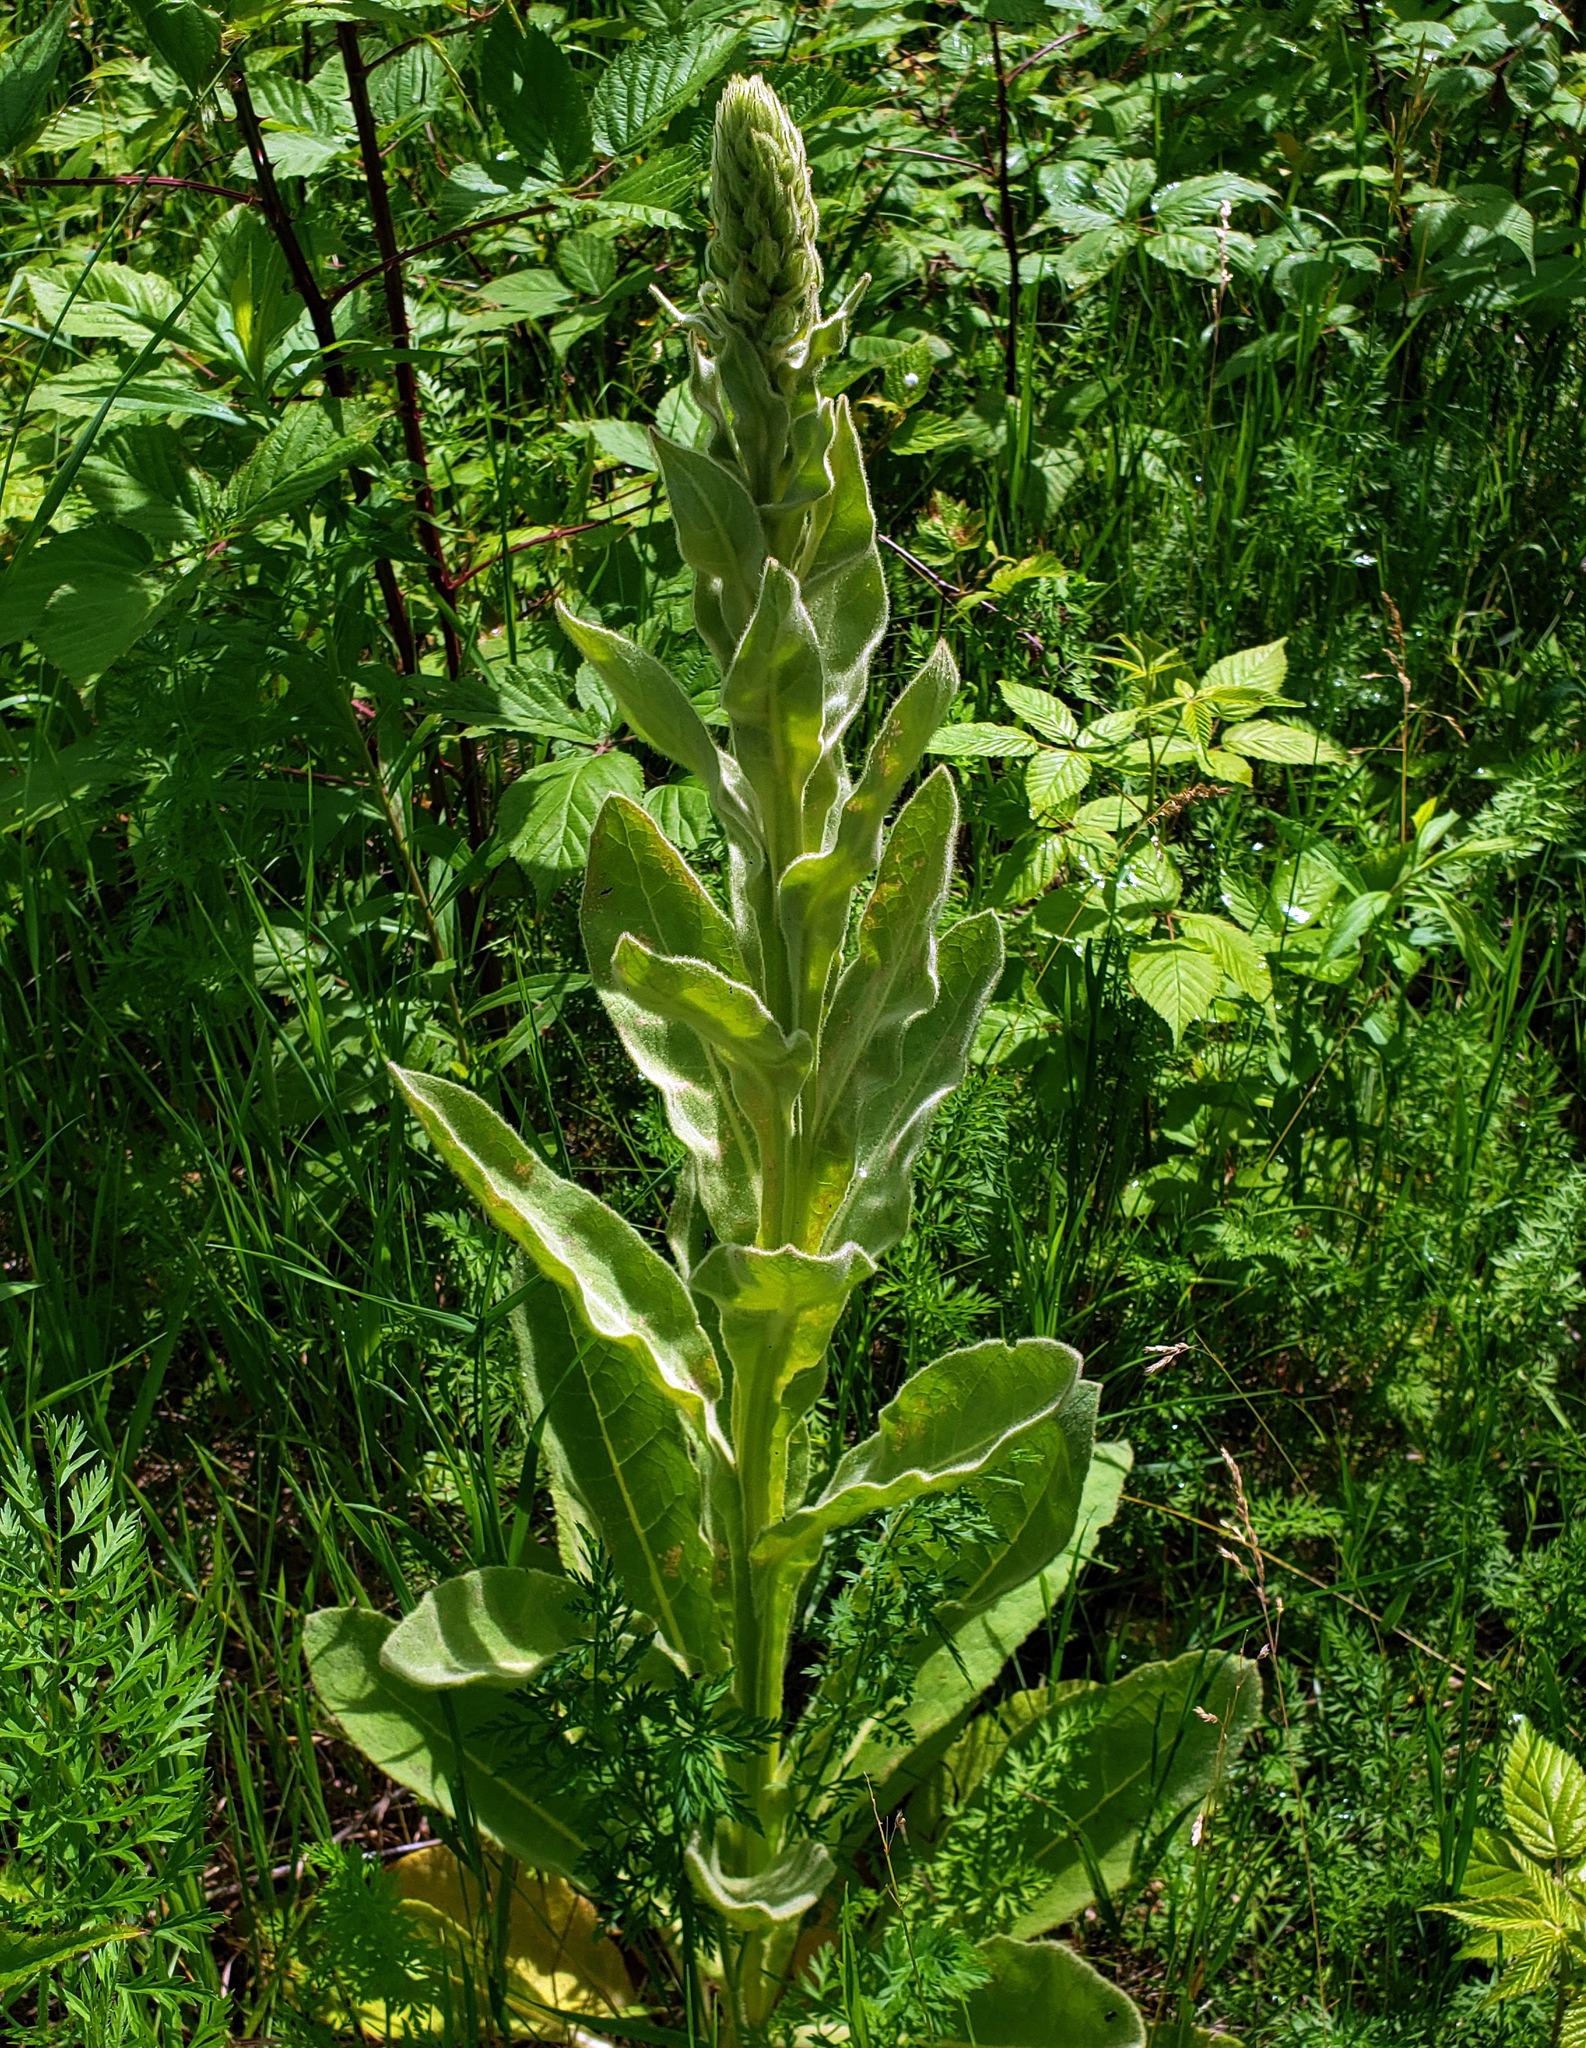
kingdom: Plantae
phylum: Tracheophyta
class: Magnoliopsida
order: Lamiales
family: Scrophulariaceae
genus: Verbascum
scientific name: Verbascum thapsus
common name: Common mullein
